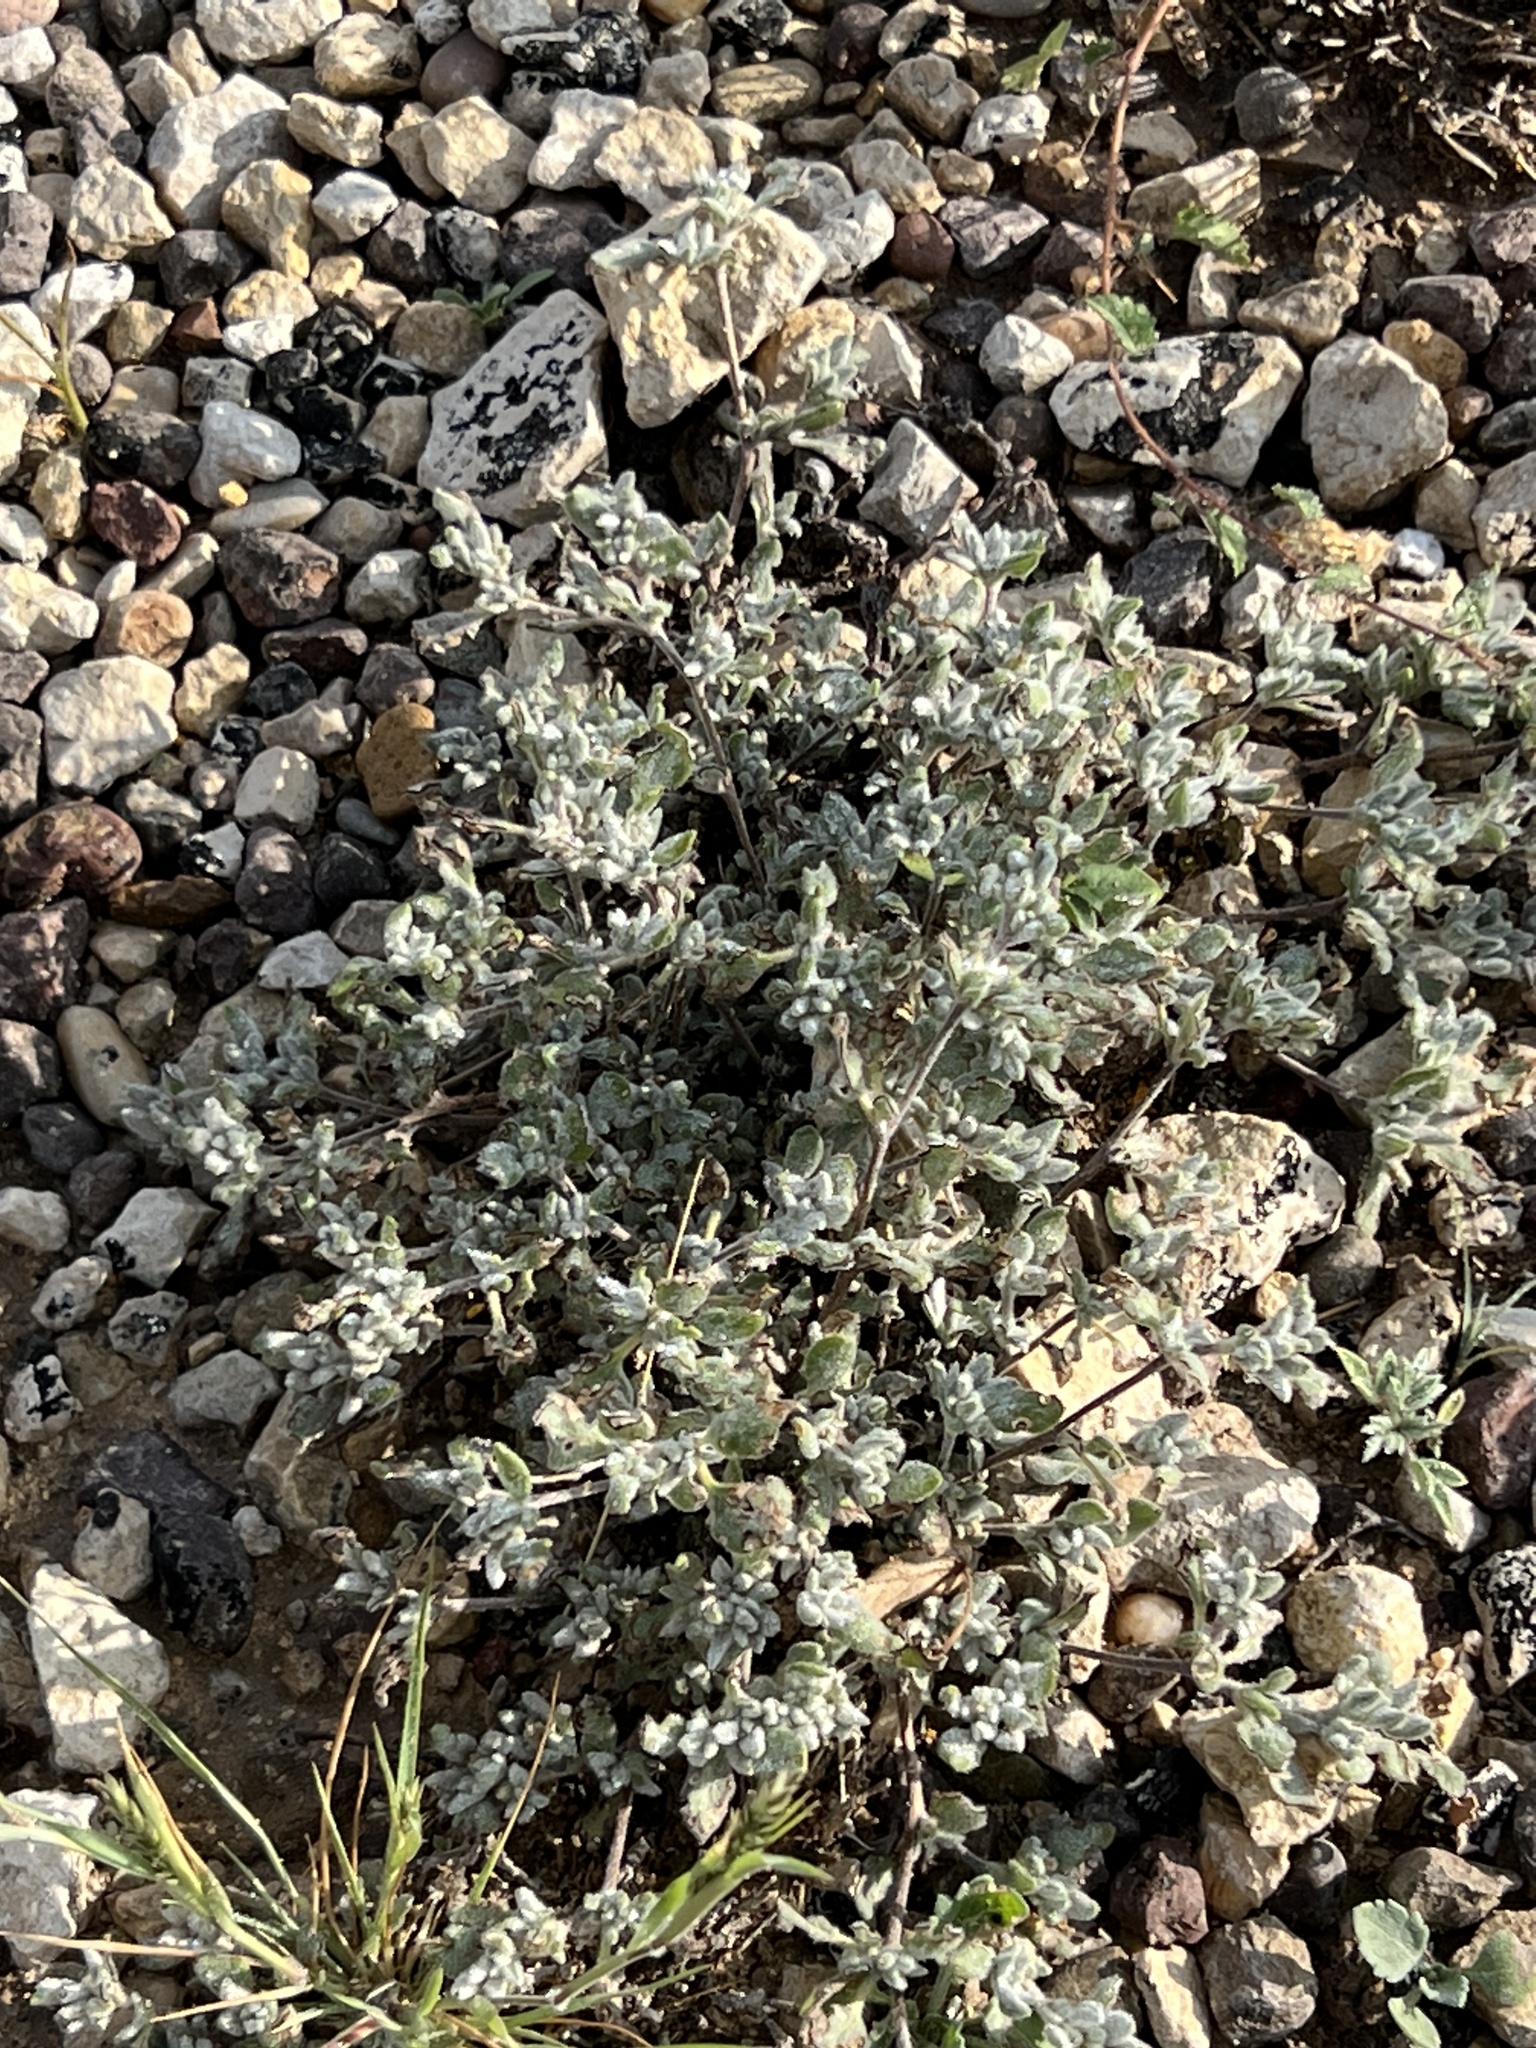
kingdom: Plantae
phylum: Tracheophyta
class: Magnoliopsida
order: Boraginales
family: Ehretiaceae
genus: Tiquilia
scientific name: Tiquilia canescens
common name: Hairy tiquilia
